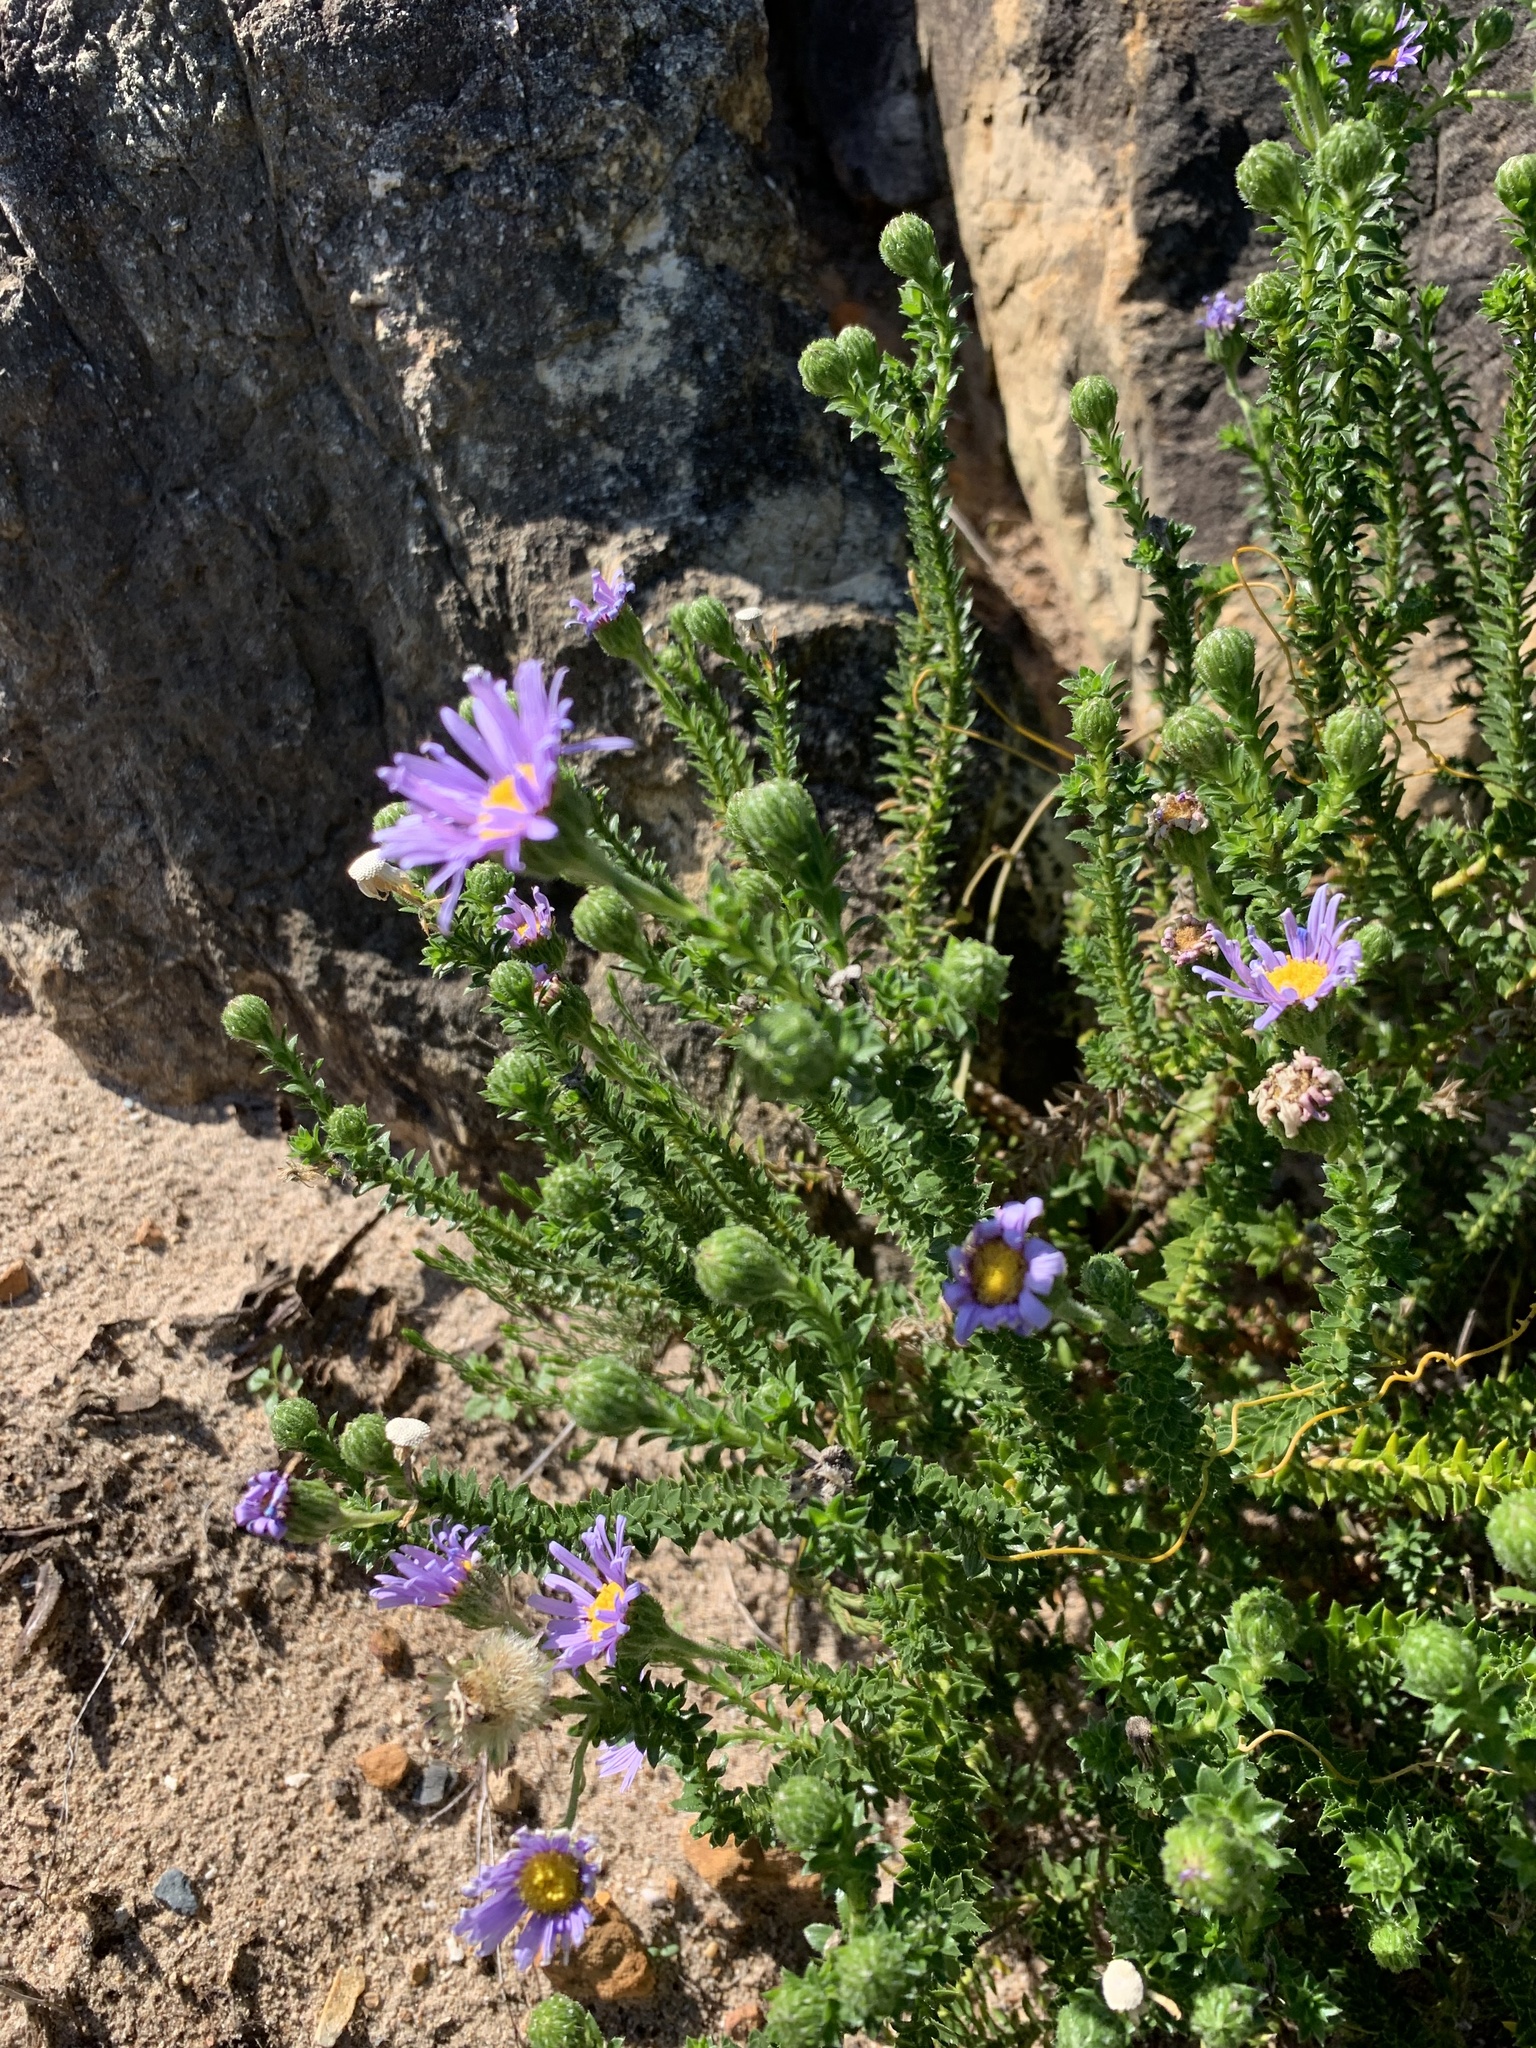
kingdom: Plantae
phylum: Tracheophyta
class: Magnoliopsida
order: Asterales
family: Asteraceae
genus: Felicia
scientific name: Felicia echinata
